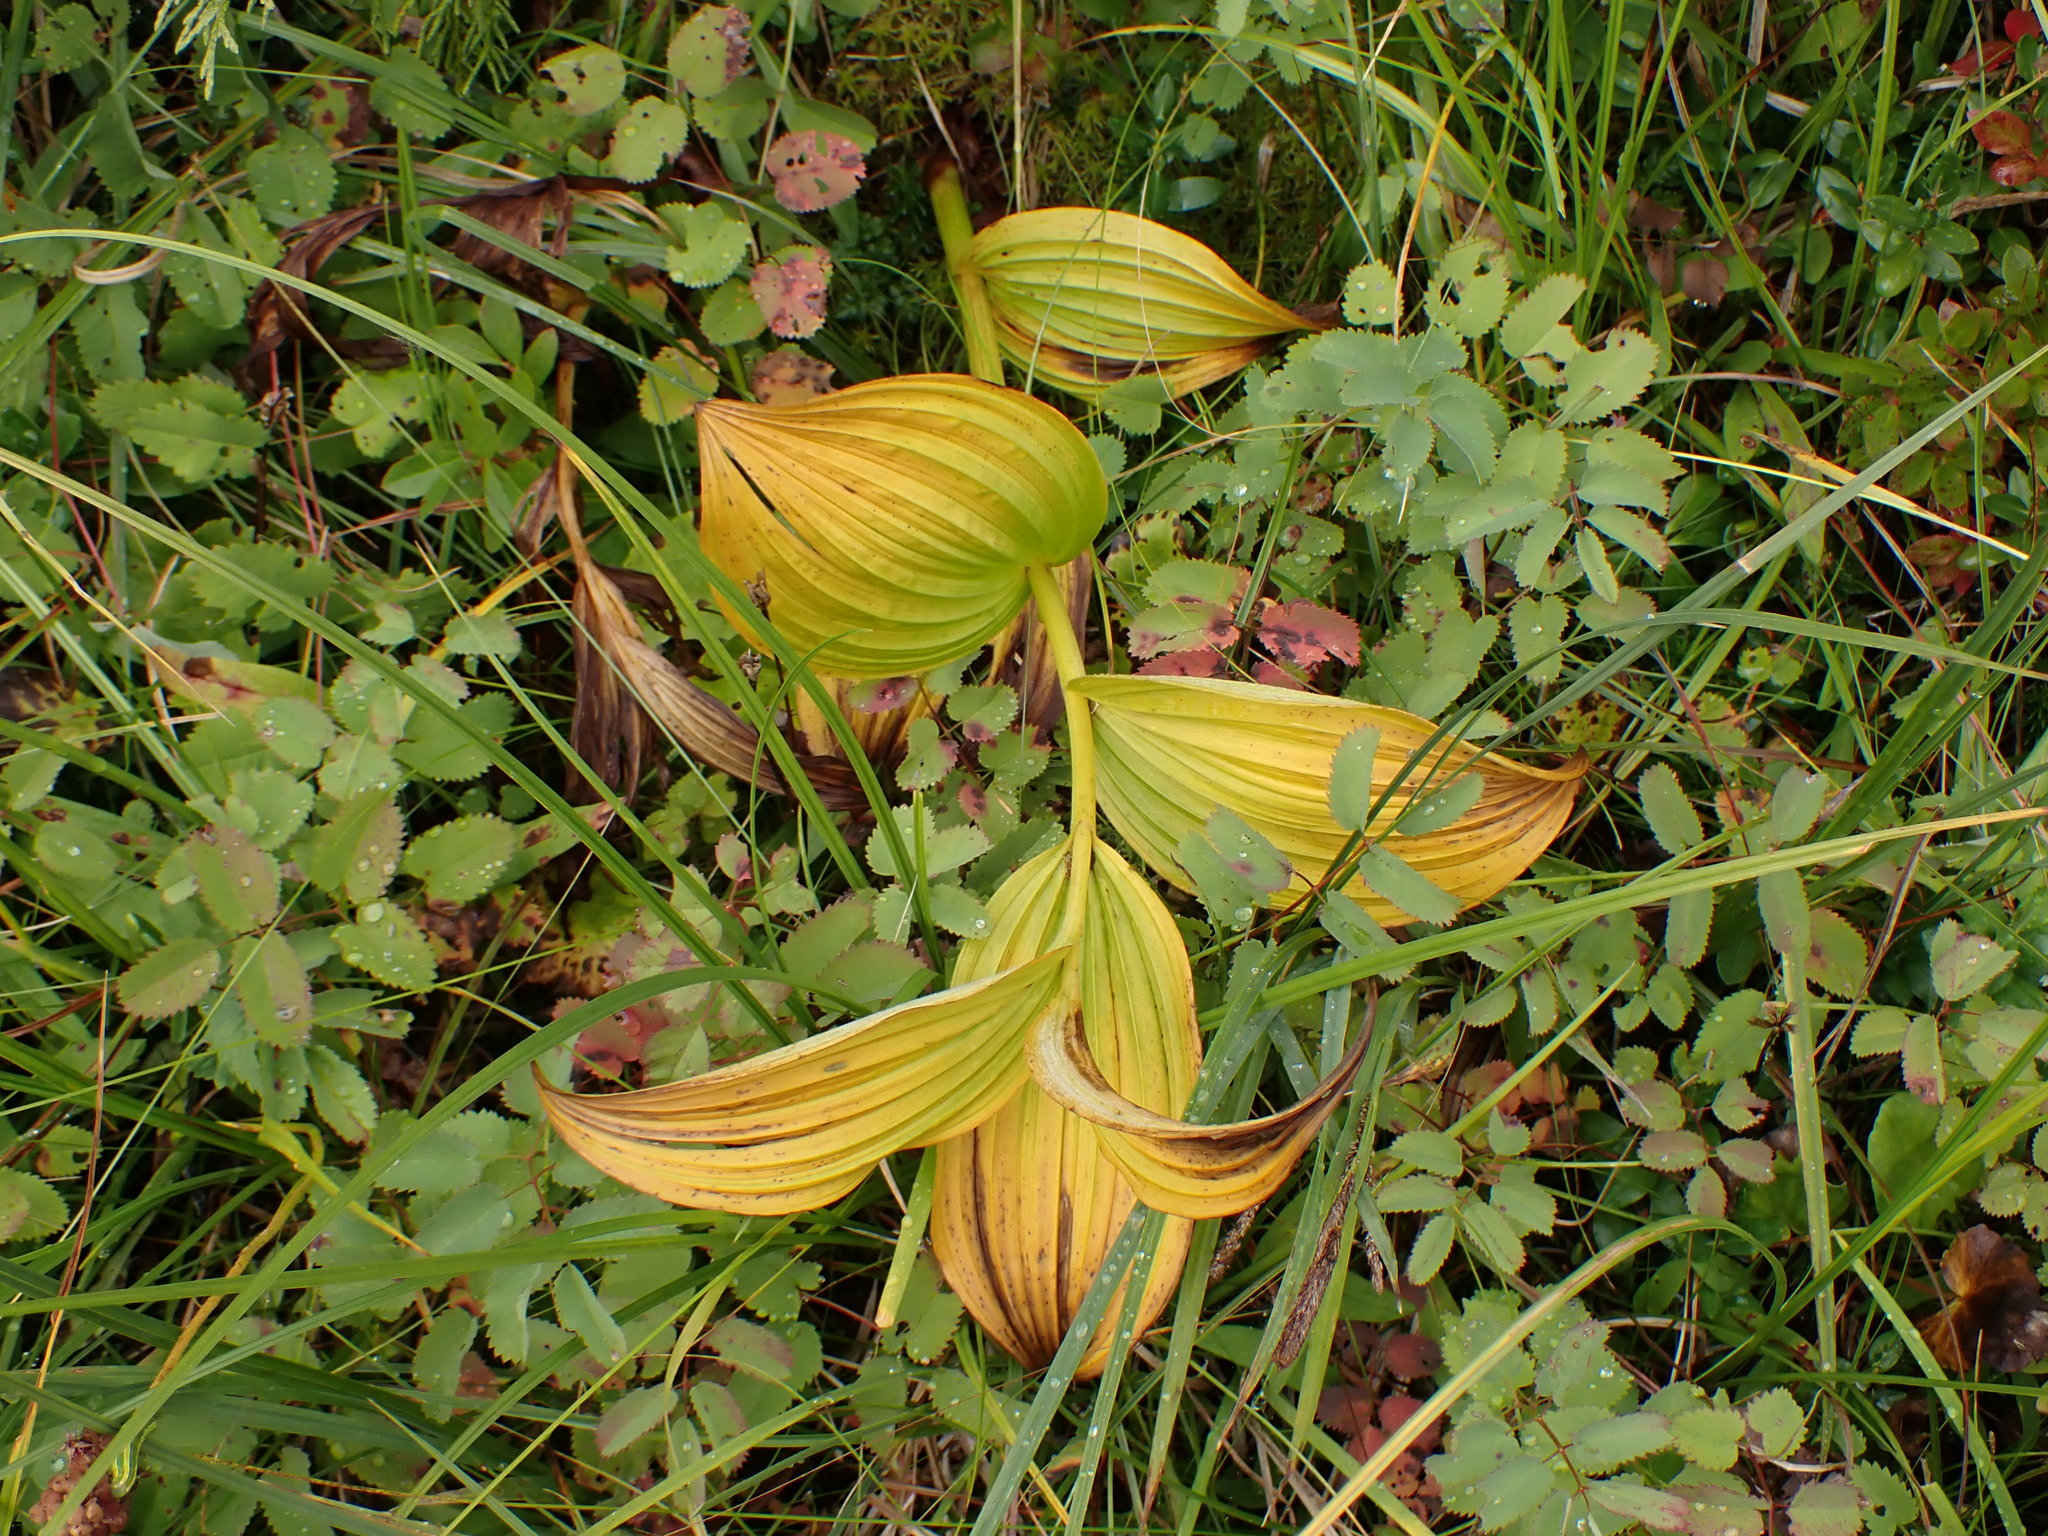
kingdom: Plantae
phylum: Tracheophyta
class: Liliopsida
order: Liliales
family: Melanthiaceae
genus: Veratrum
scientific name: Veratrum viride
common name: American false hellebore
